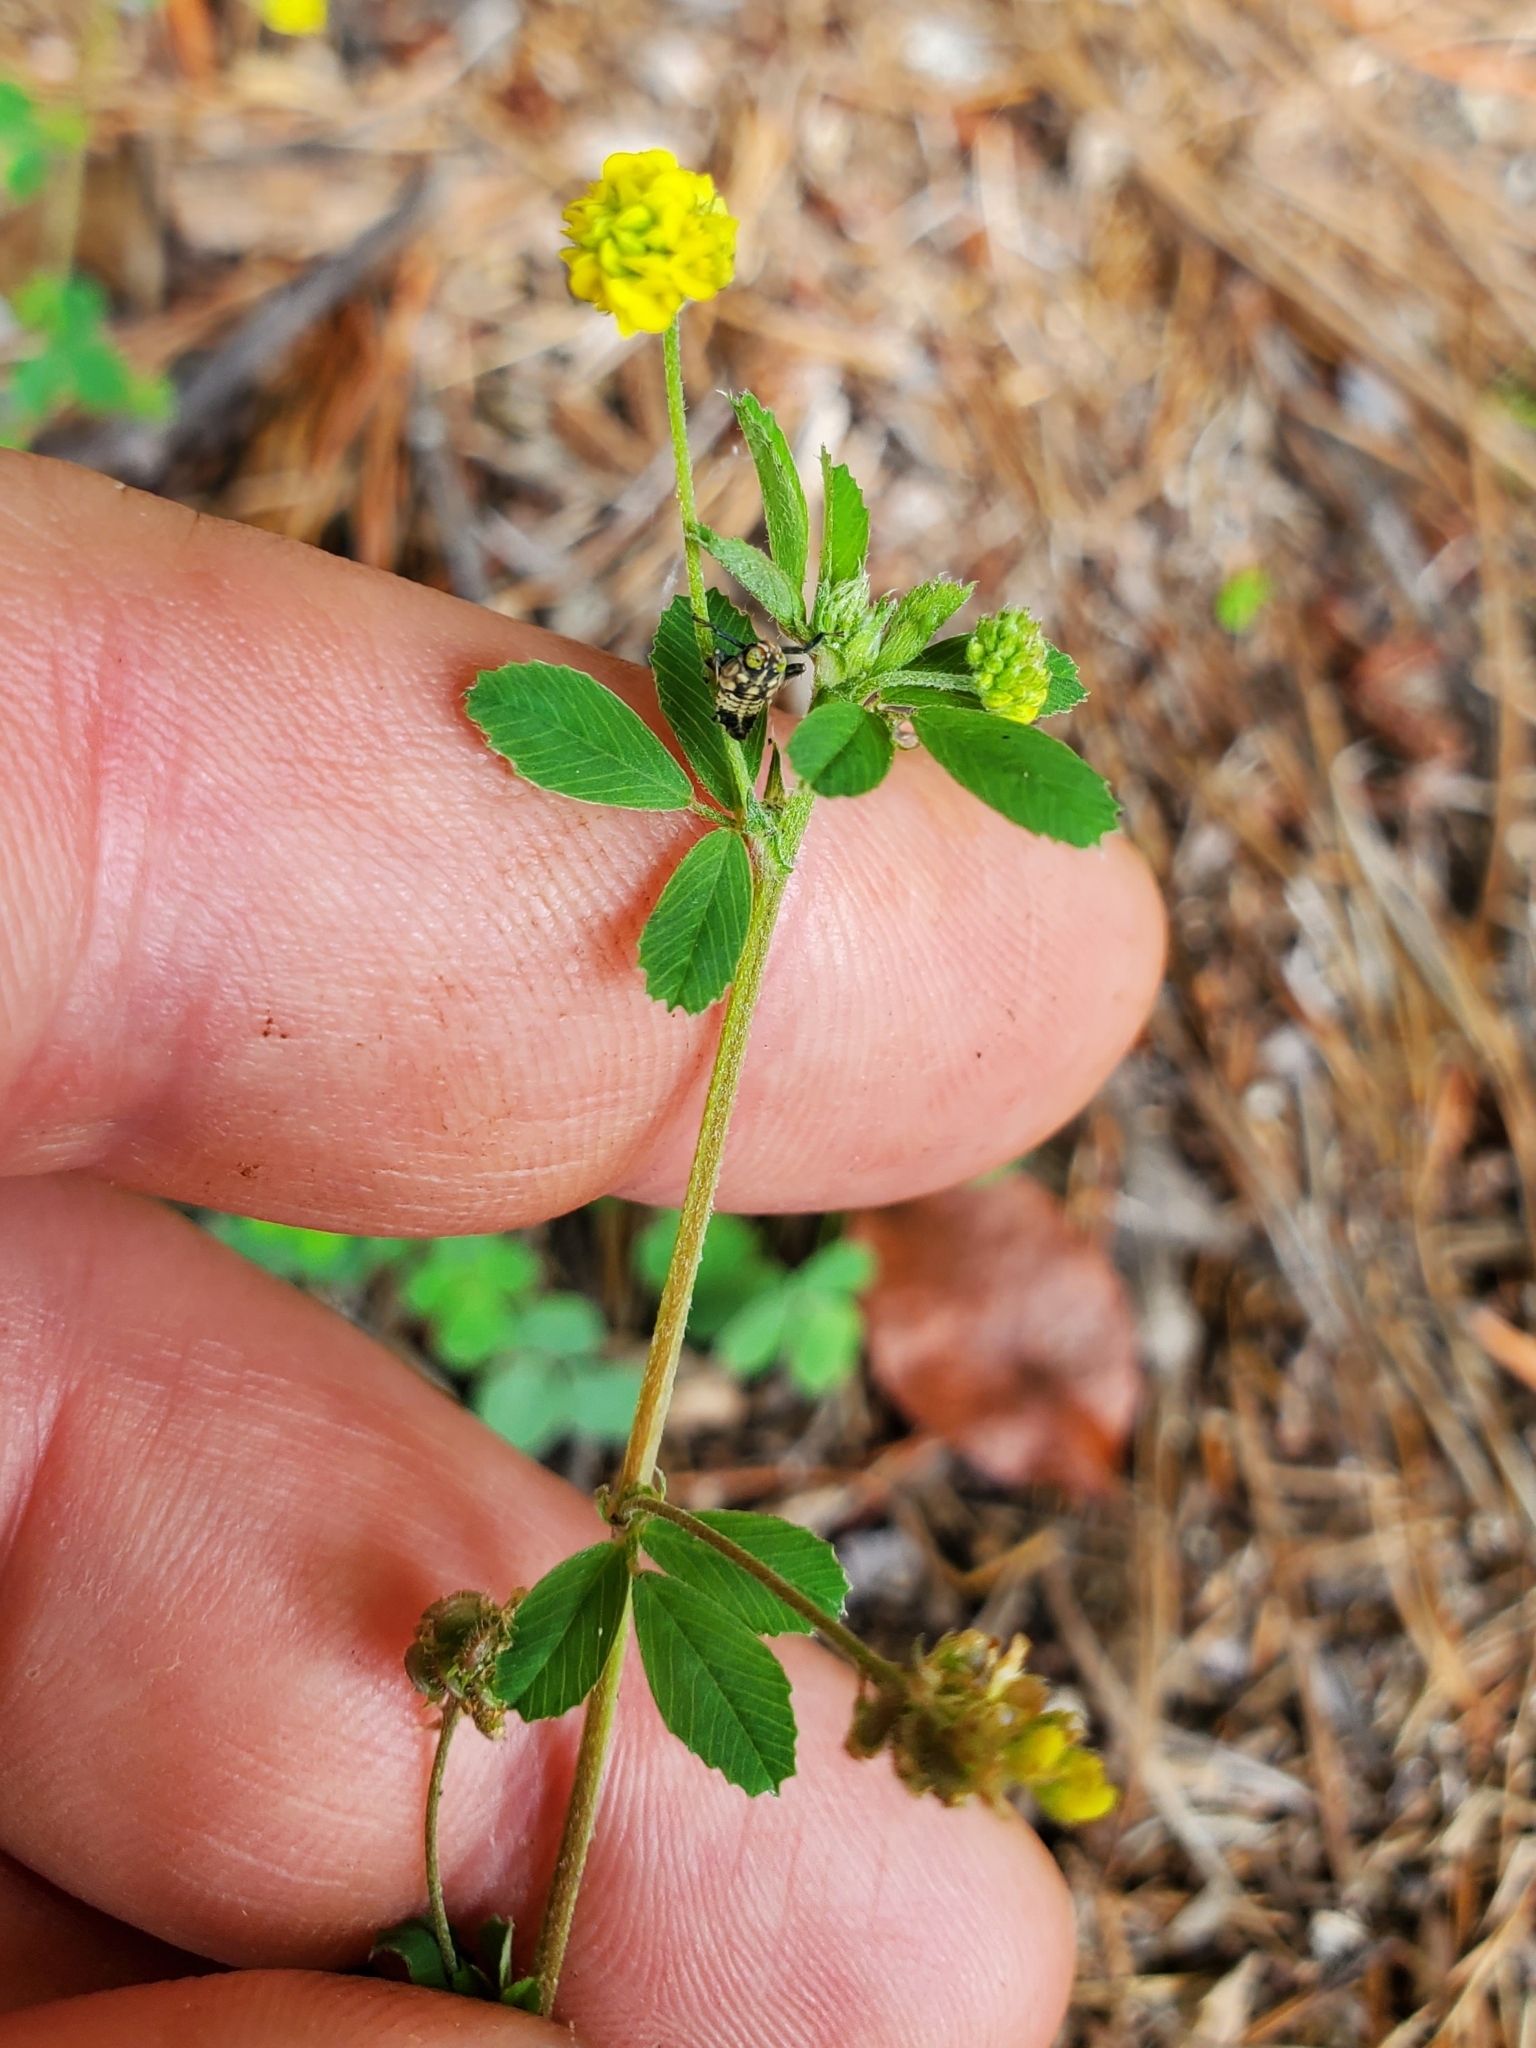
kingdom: Plantae
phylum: Tracheophyta
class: Magnoliopsida
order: Fabales
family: Fabaceae
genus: Medicago
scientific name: Medicago lupulina
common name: Black medick
